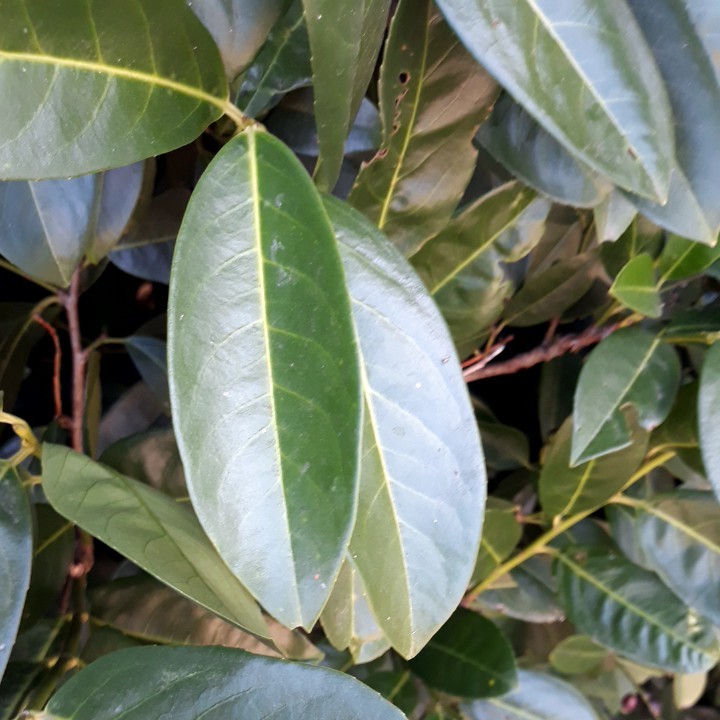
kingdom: Plantae
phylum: Tracheophyta
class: Magnoliopsida
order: Rosales
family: Rosaceae
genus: Prunus
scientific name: Prunus laurocerasus
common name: Cherry laurel
